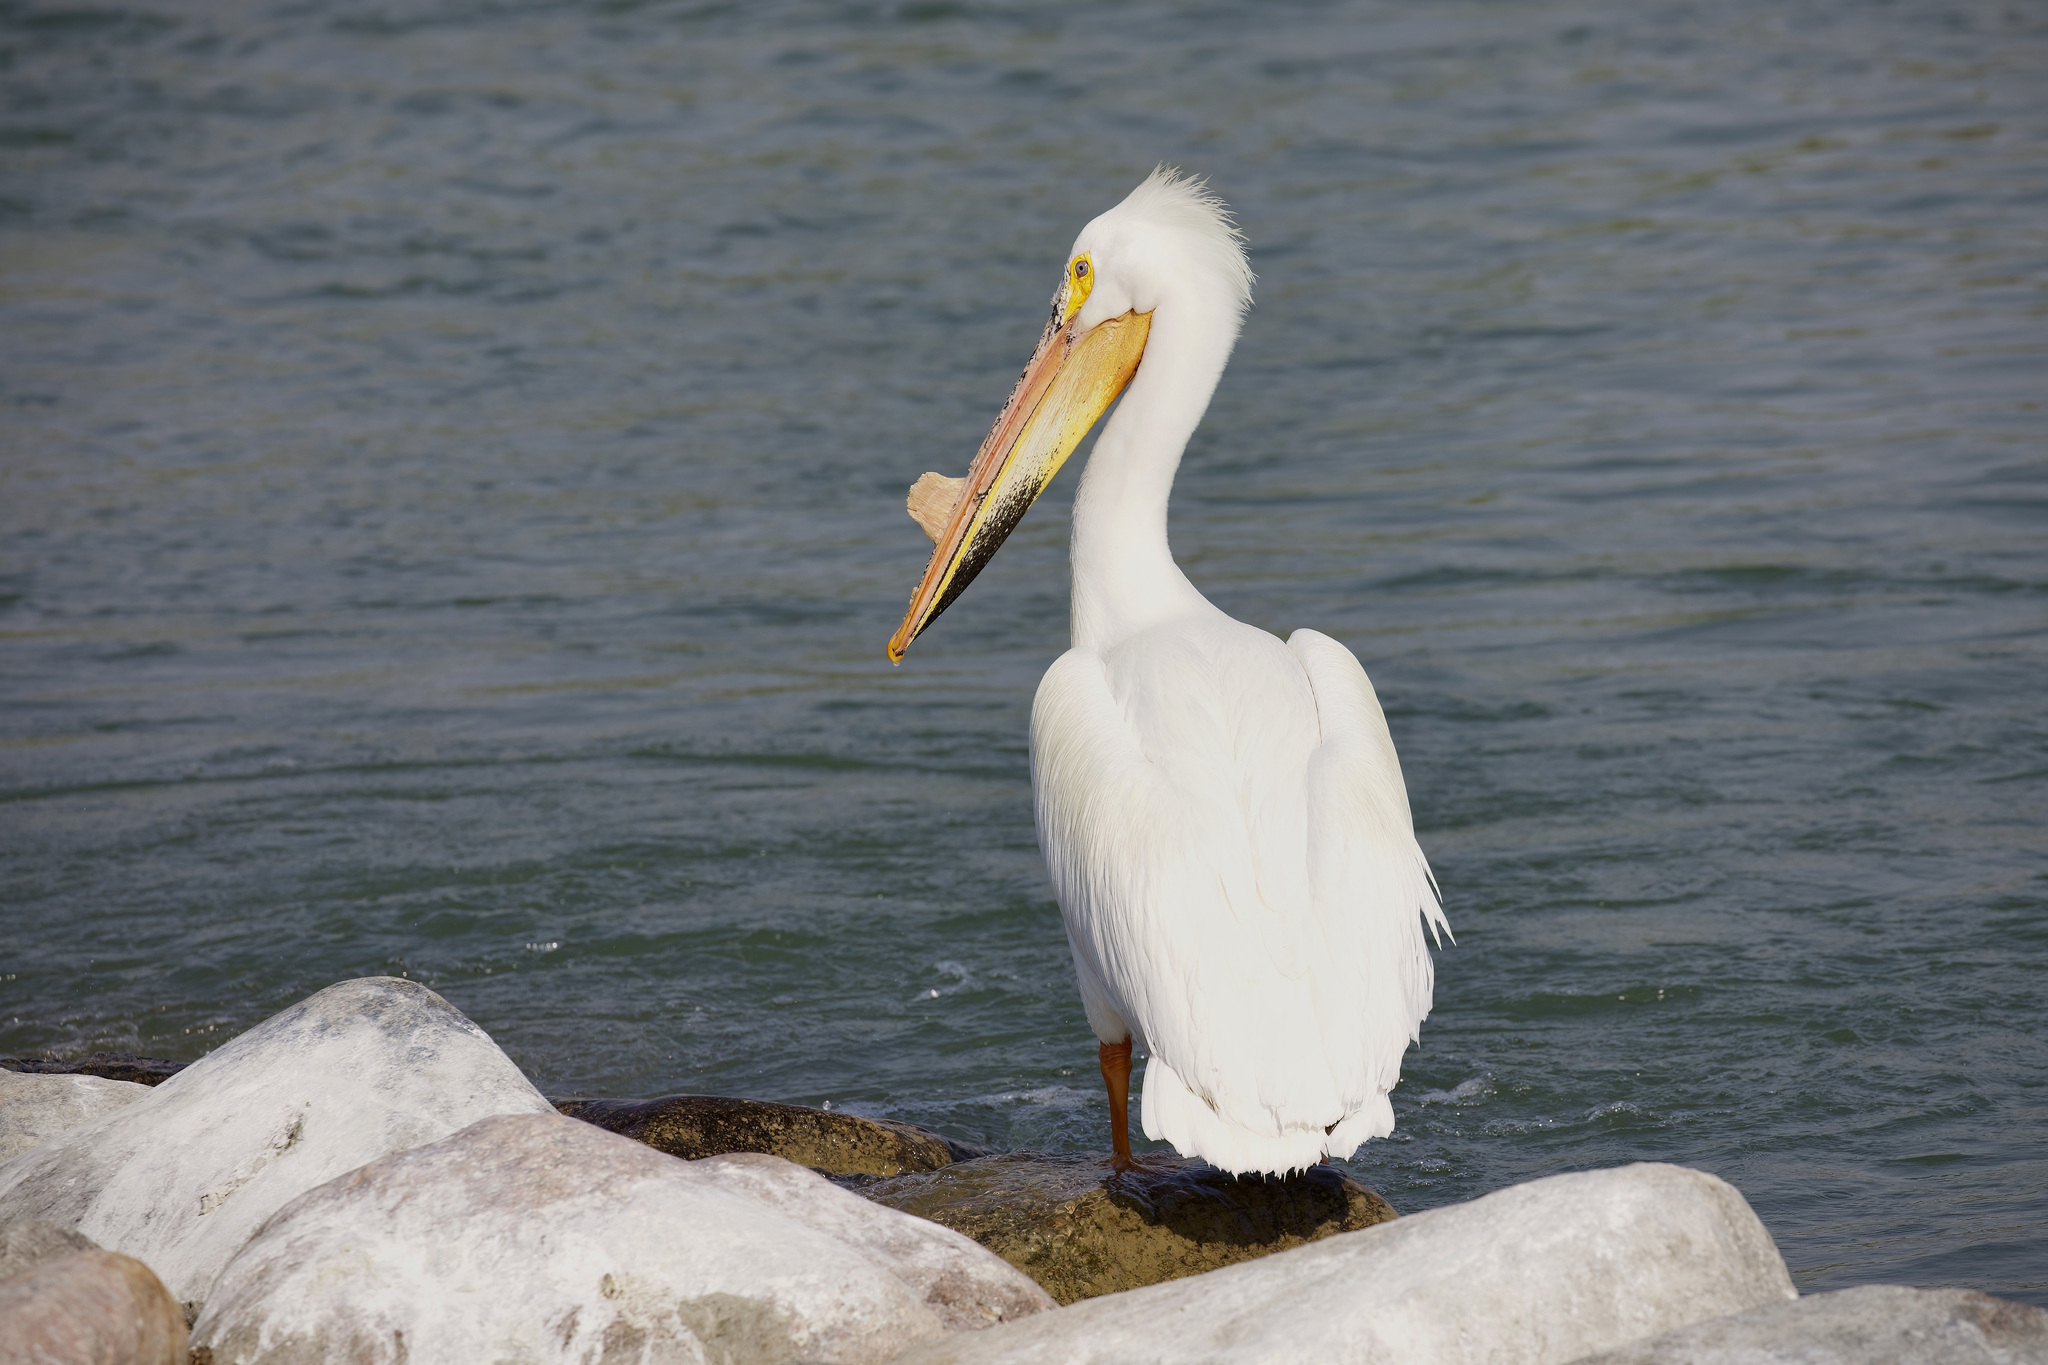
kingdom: Animalia
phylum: Chordata
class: Aves
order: Pelecaniformes
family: Pelecanidae
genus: Pelecanus
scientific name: Pelecanus erythrorhynchos
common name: American white pelican
